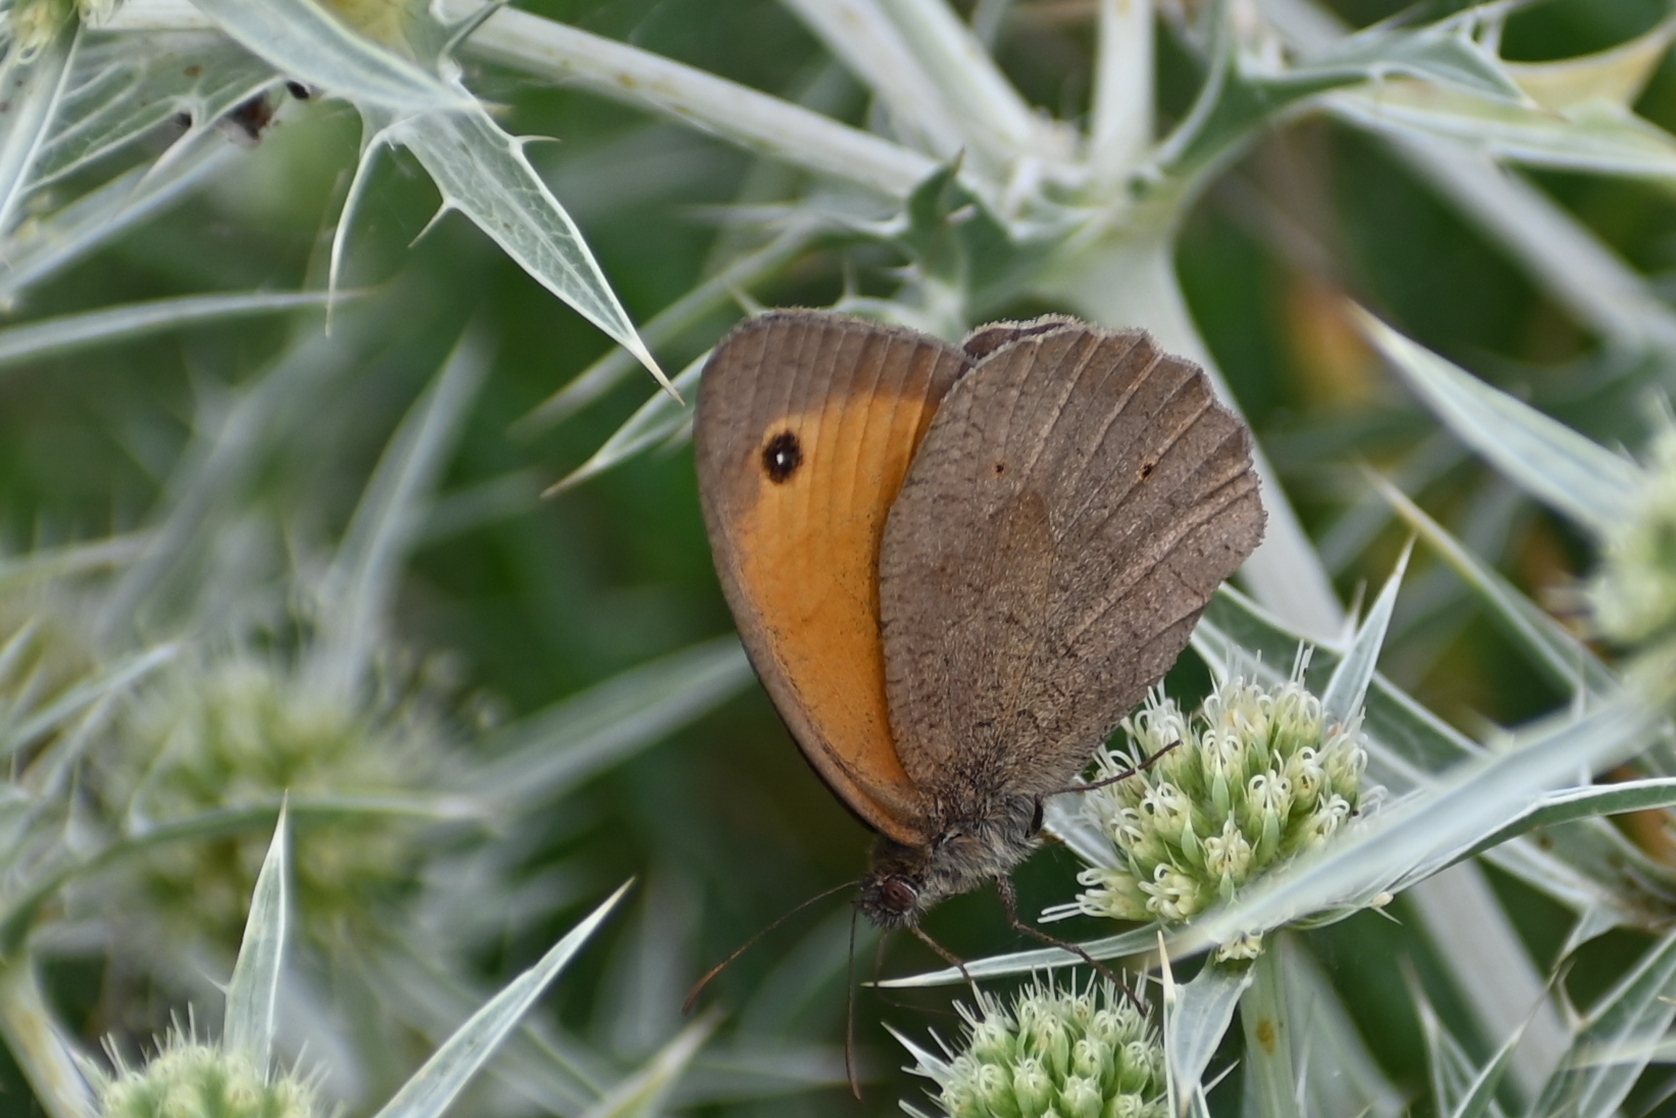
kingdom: Animalia
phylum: Arthropoda
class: Insecta
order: Lepidoptera
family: Nymphalidae
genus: Maniola
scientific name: Maniola jurtina
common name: Meadow brown
